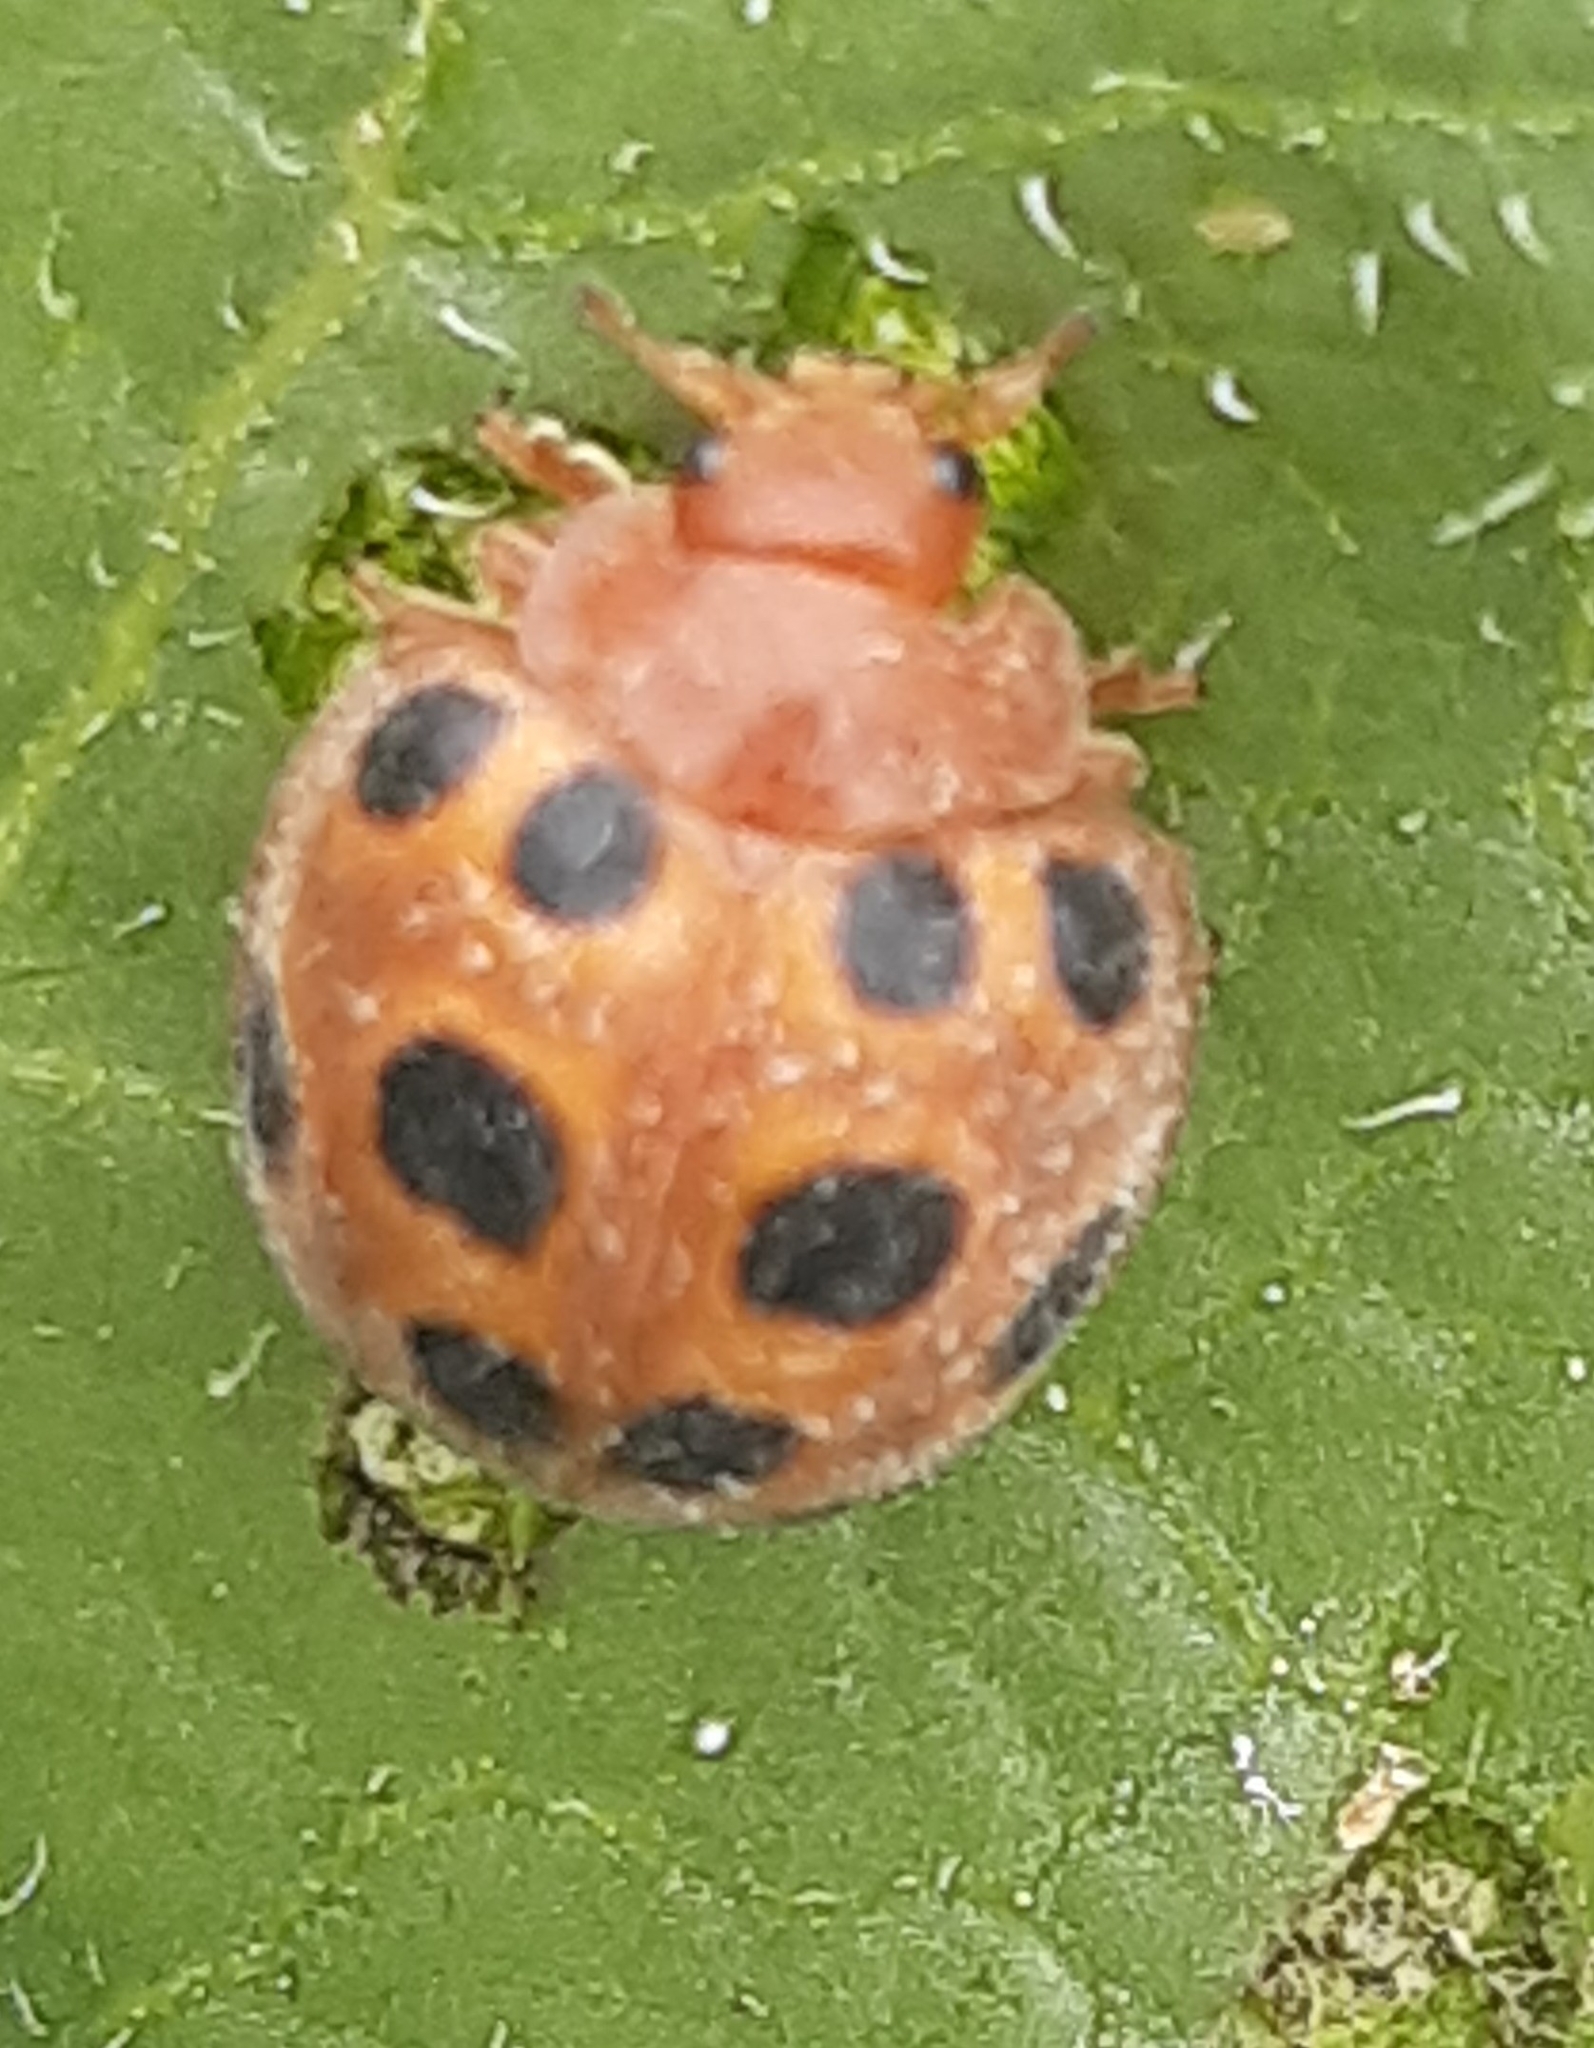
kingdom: Animalia
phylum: Arthropoda
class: Insecta
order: Coleoptera
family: Coccinellidae
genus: Chnootriba
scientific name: Chnootriba elaterii
